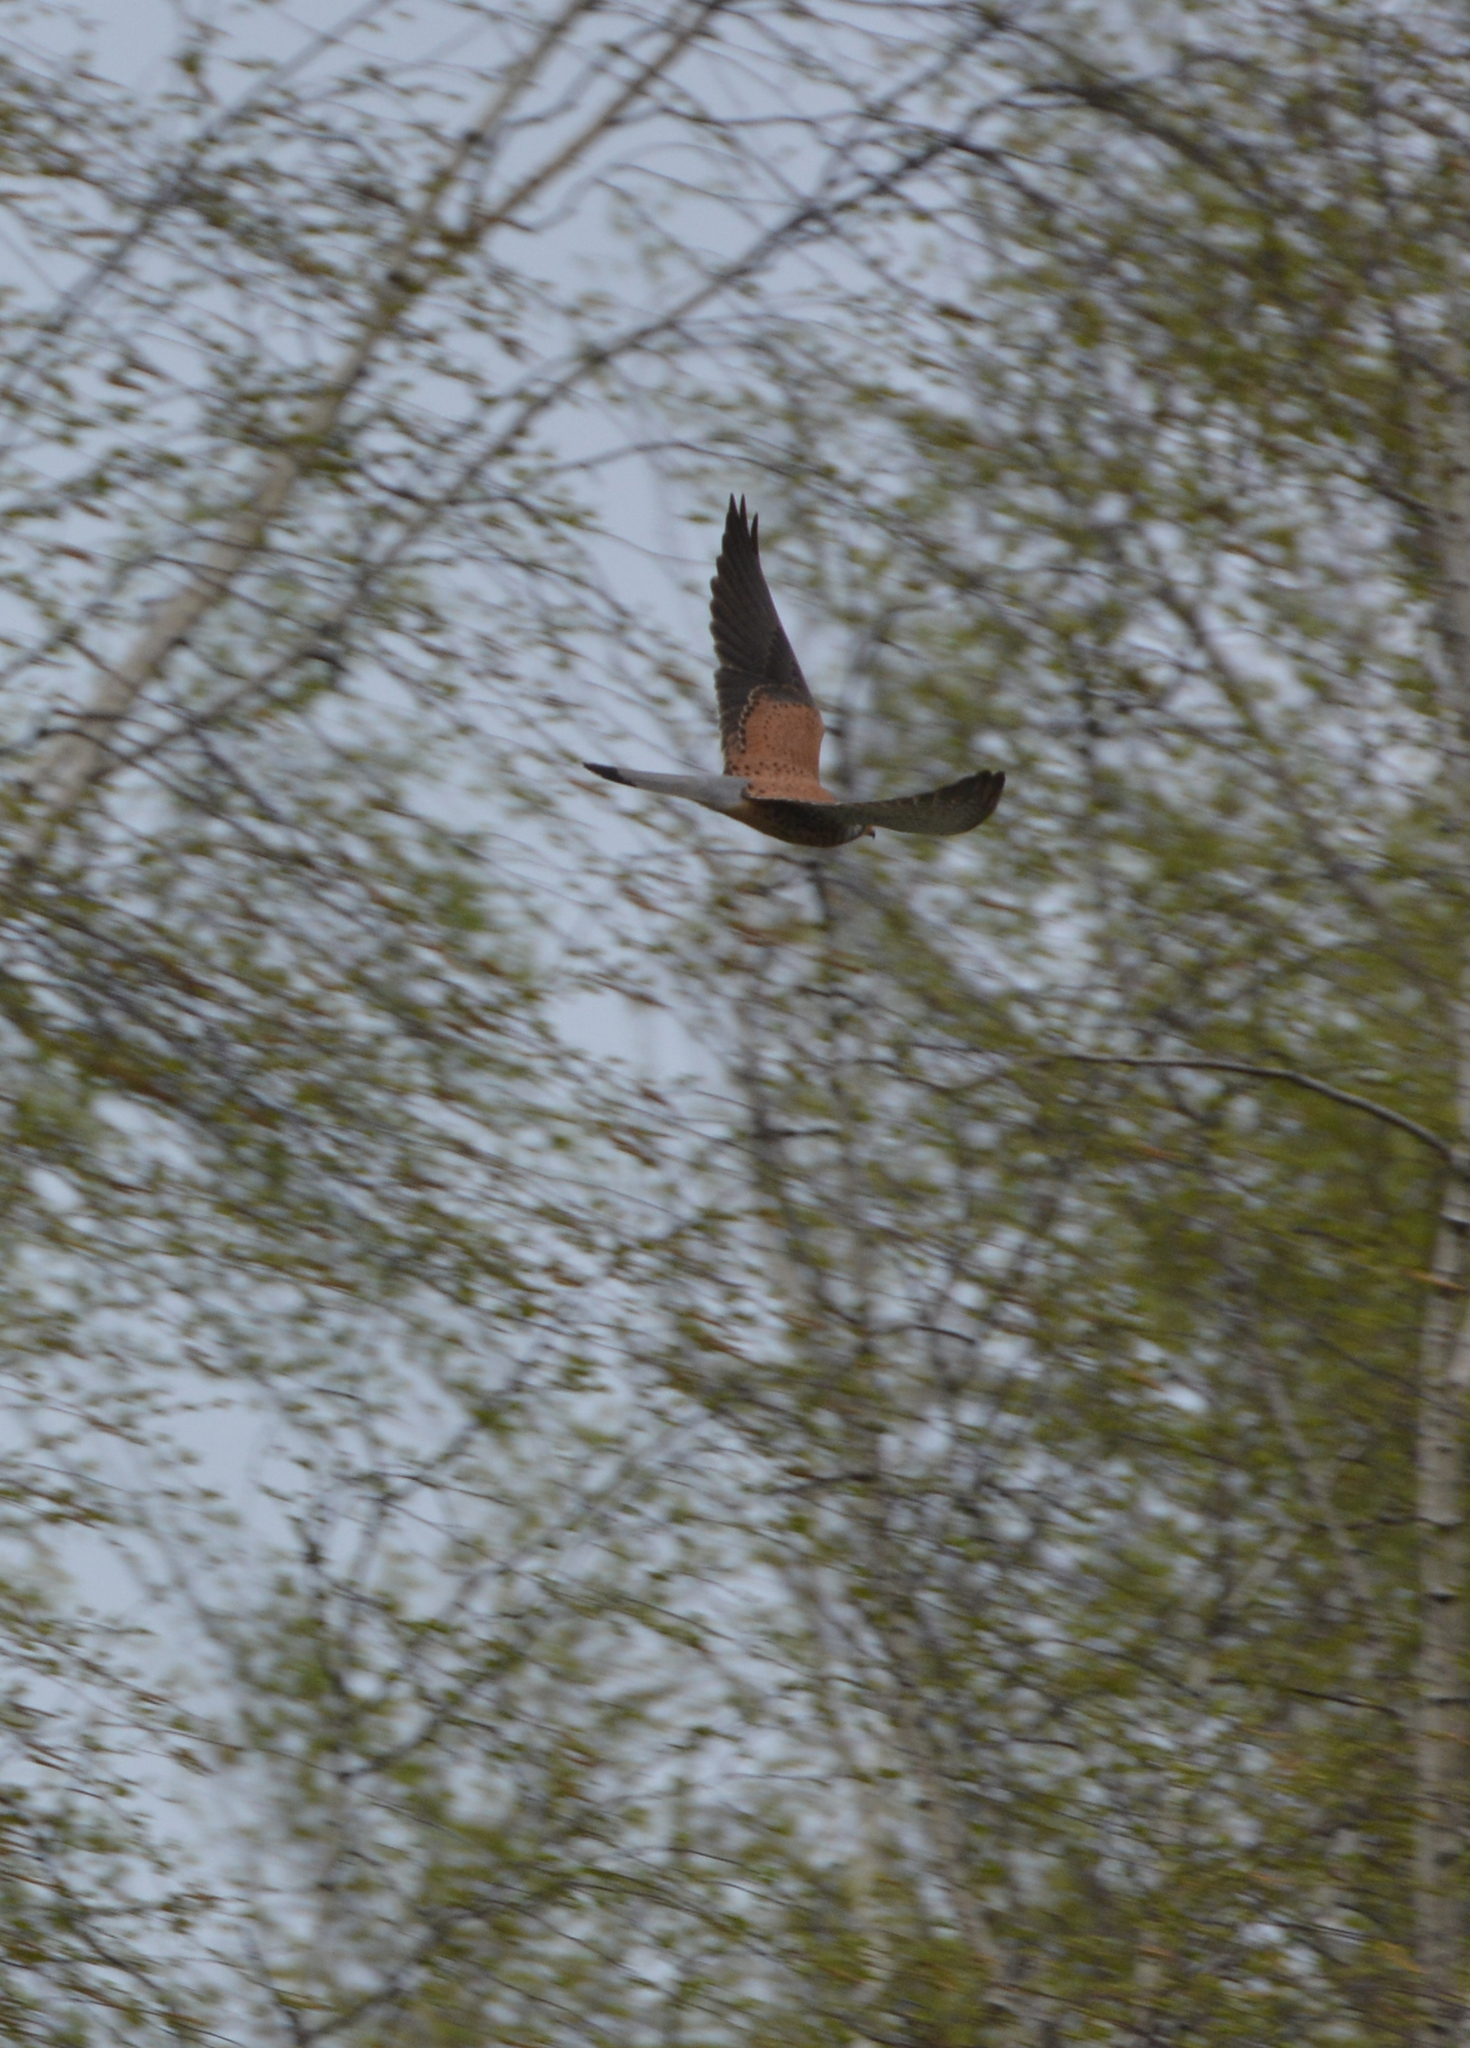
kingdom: Animalia
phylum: Chordata
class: Aves
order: Falconiformes
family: Falconidae
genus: Falco
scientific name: Falco tinnunculus
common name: Common kestrel
